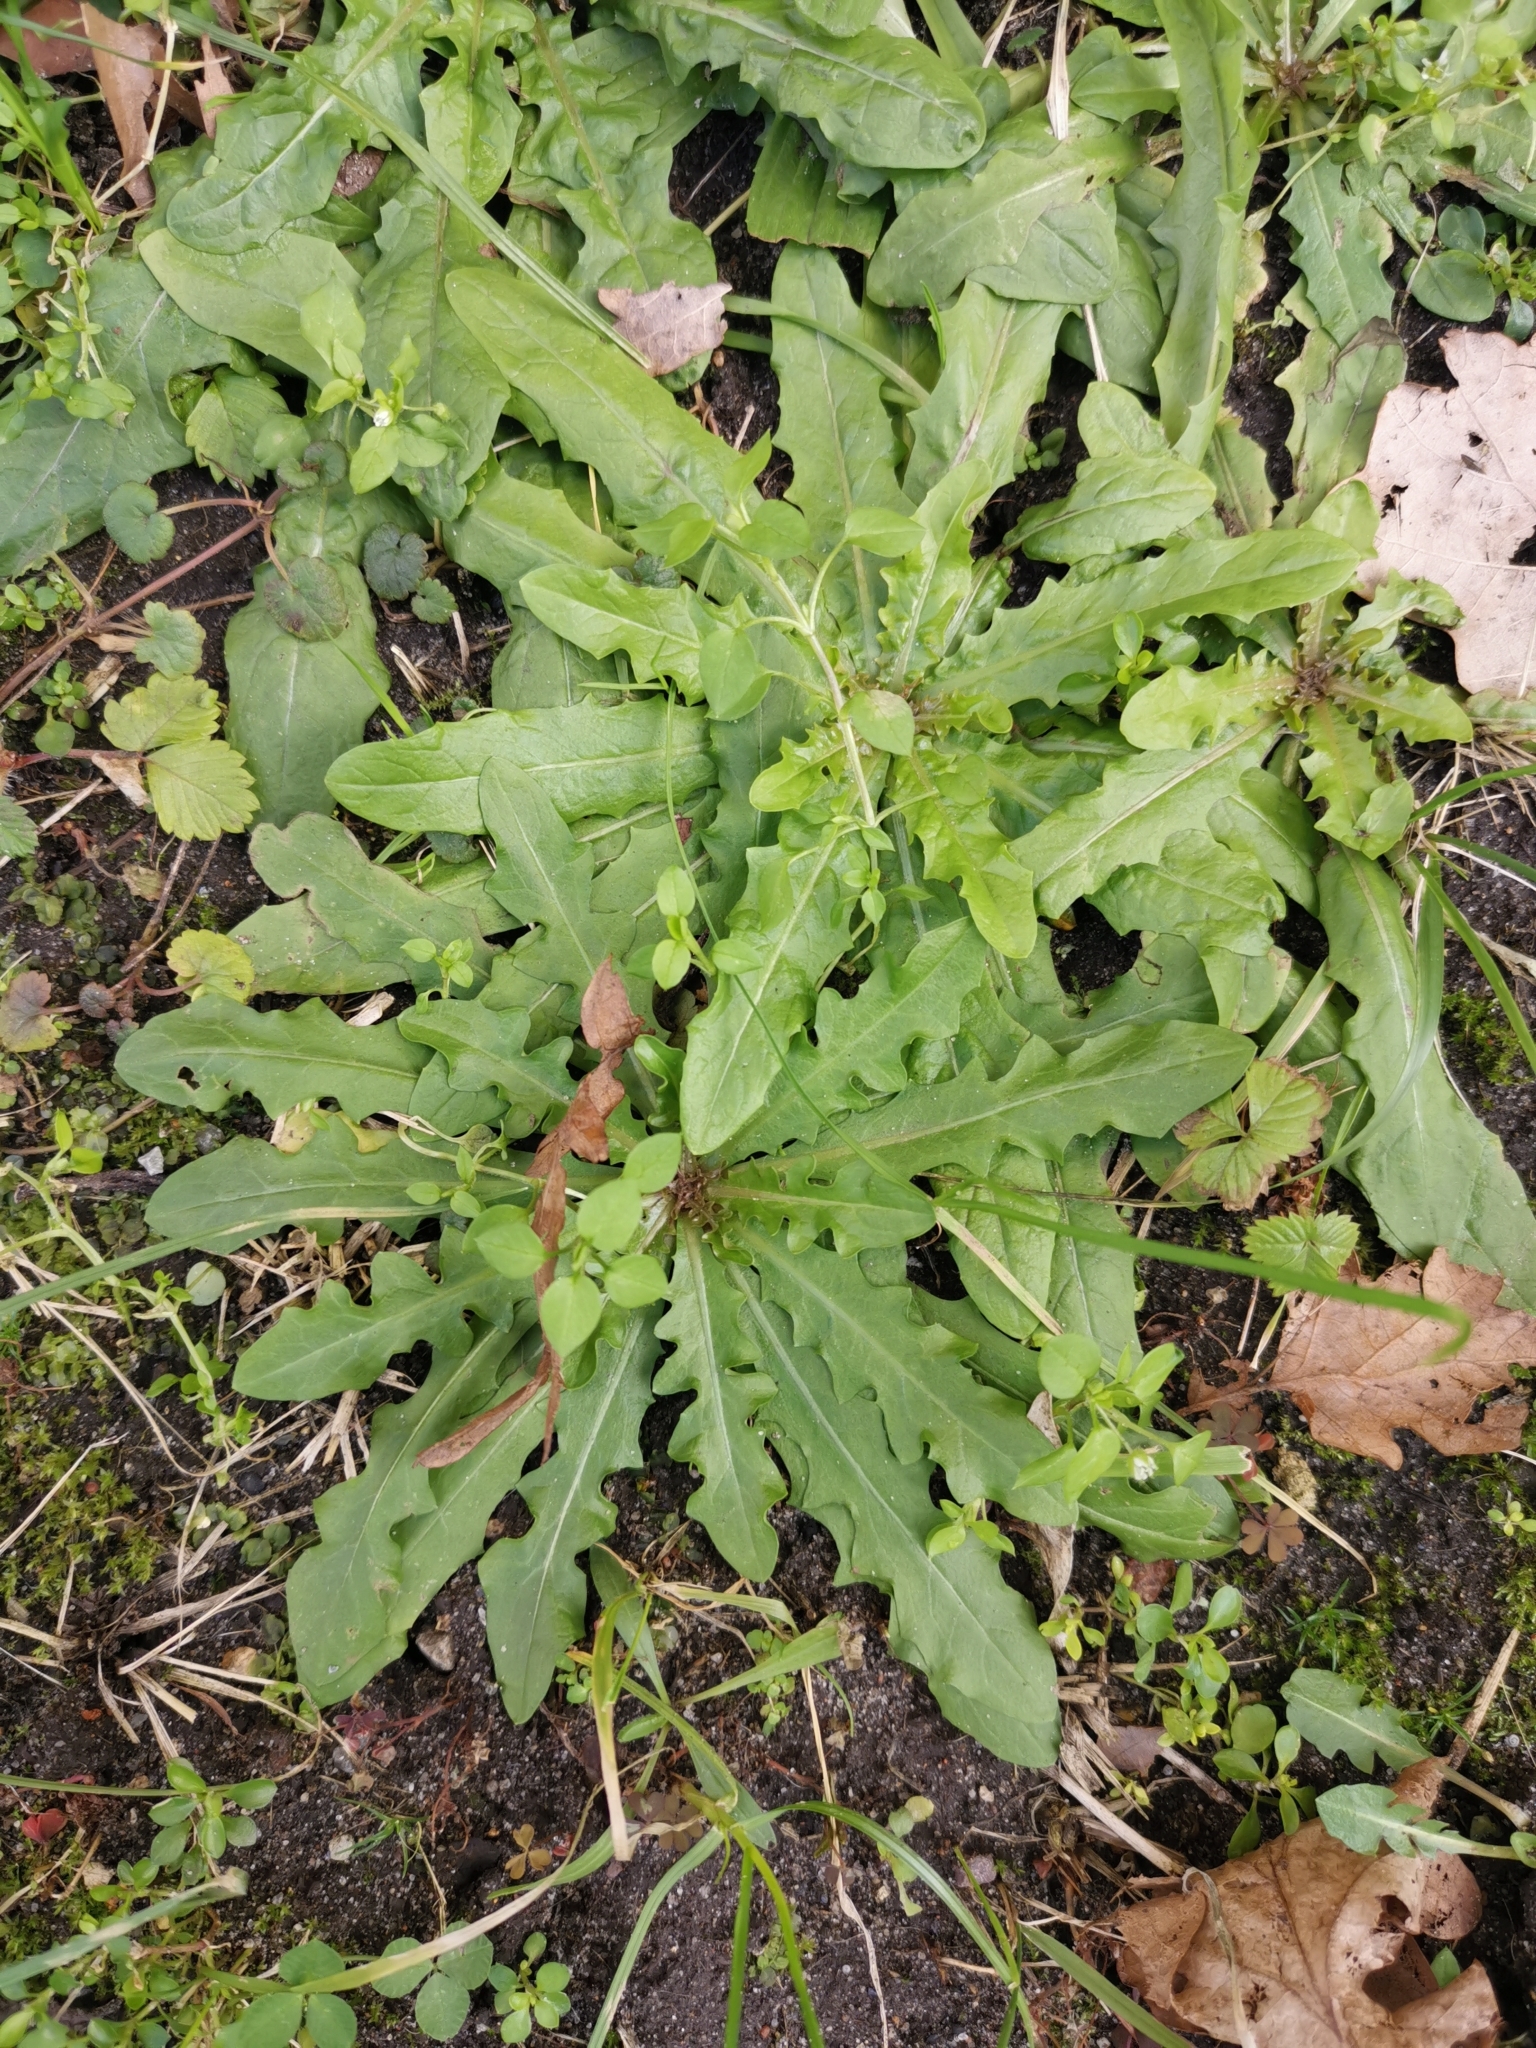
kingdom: Plantae
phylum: Tracheophyta
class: Magnoliopsida
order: Asterales
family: Asteraceae
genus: Hypochaeris
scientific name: Hypochaeris radicata
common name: Flatweed
